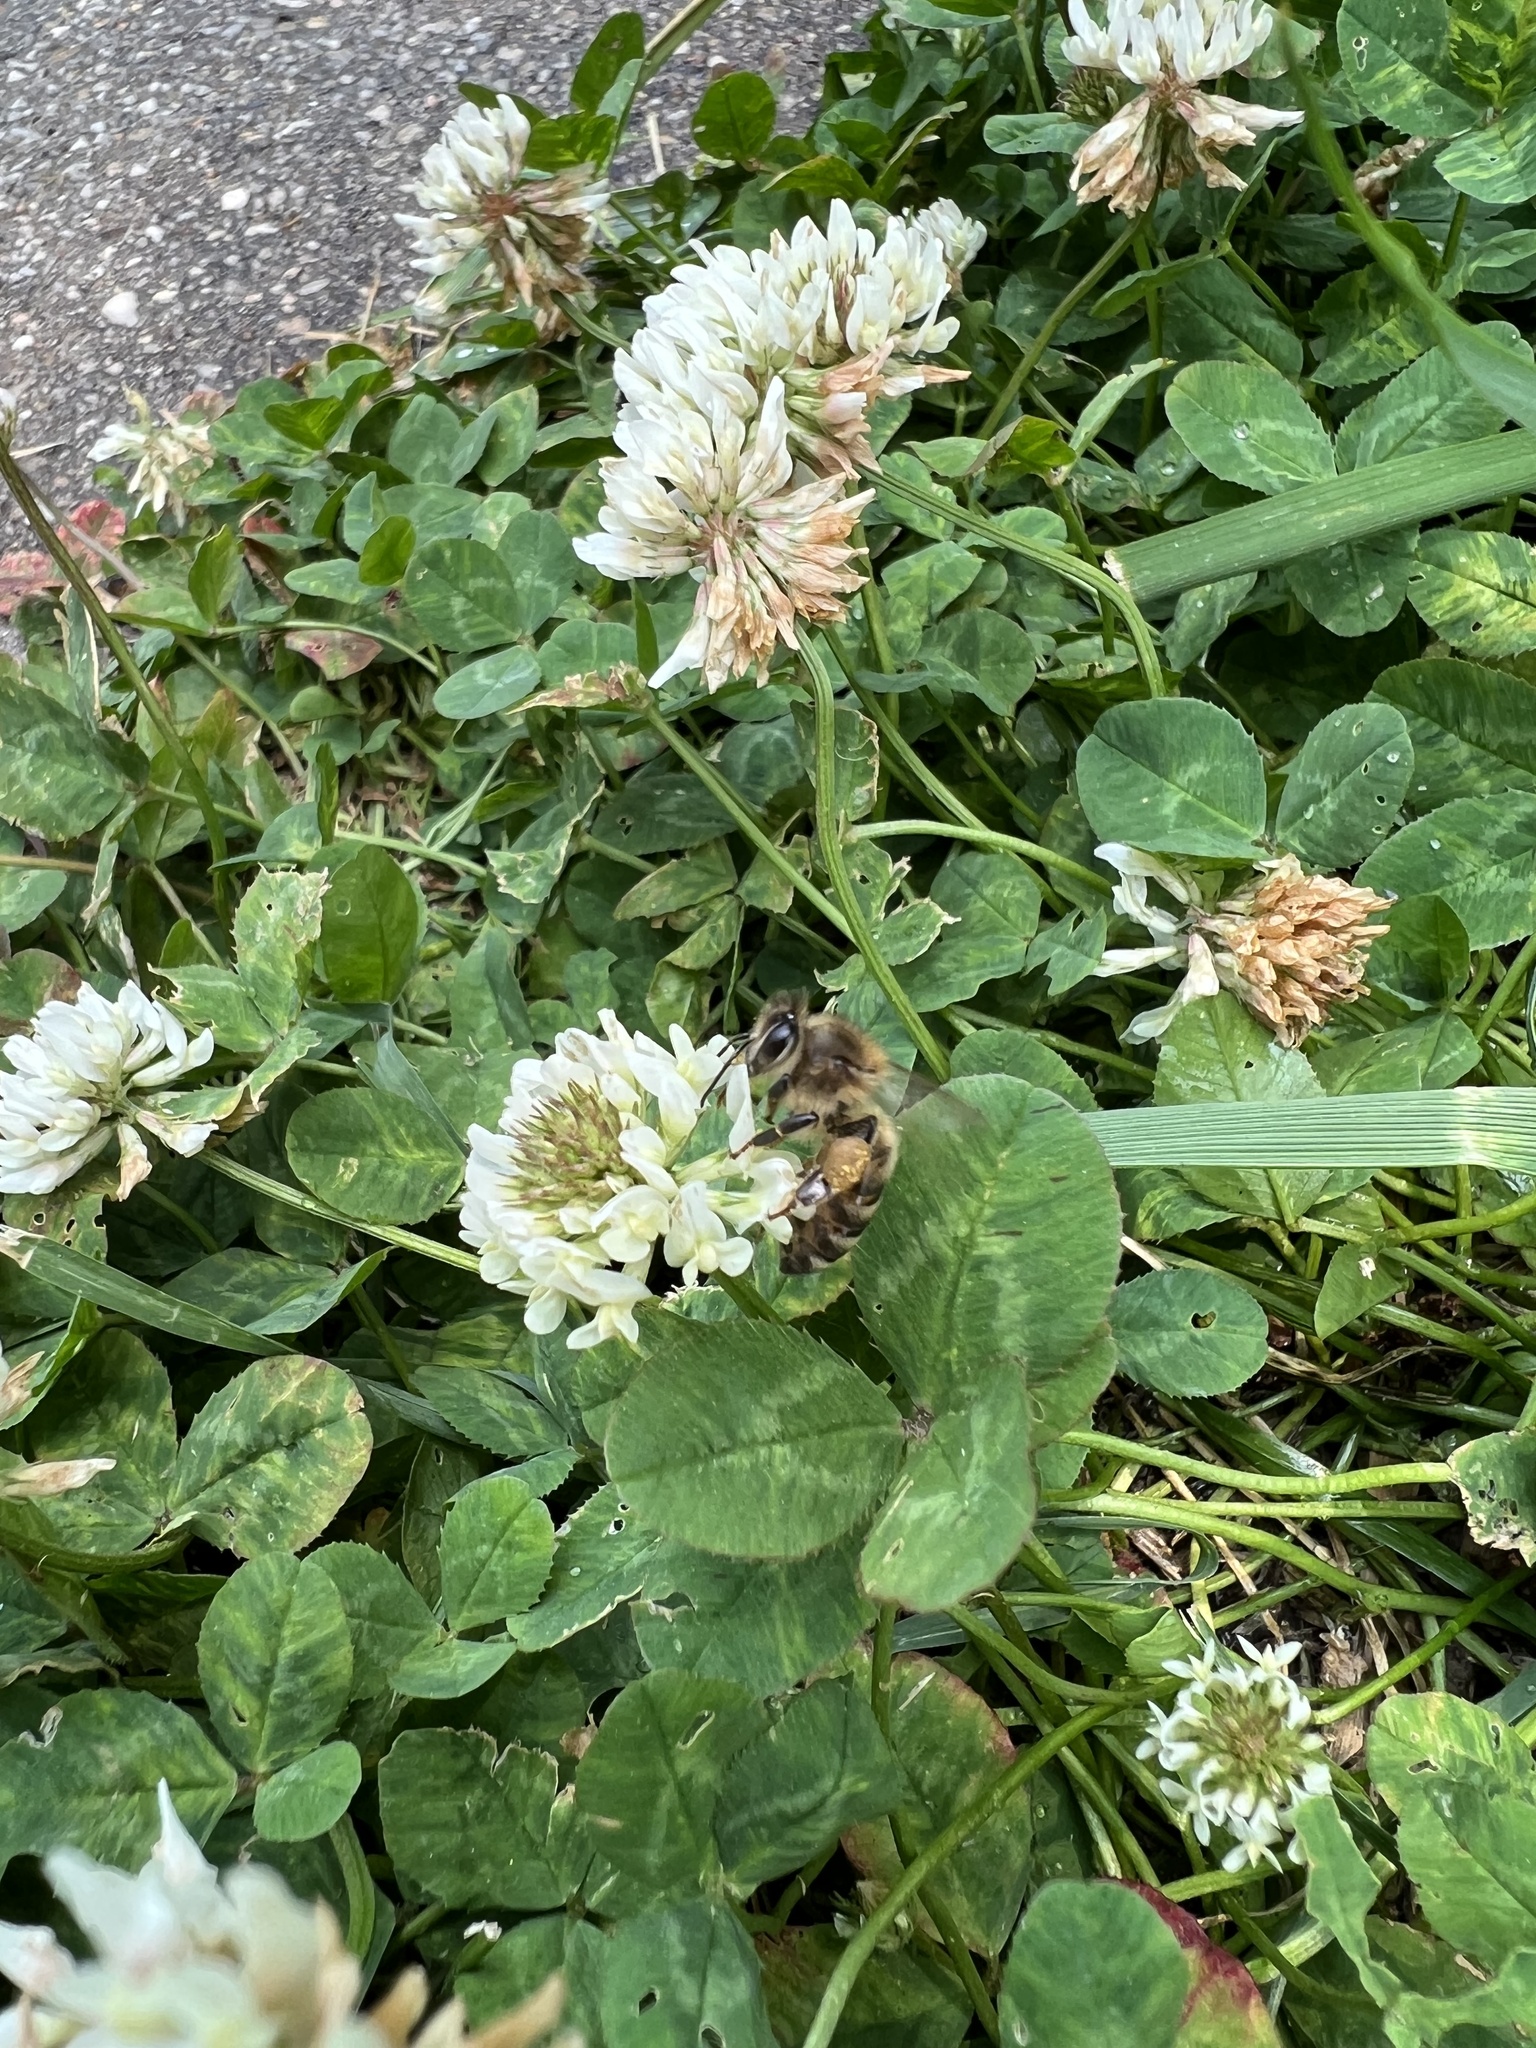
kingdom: Animalia
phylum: Arthropoda
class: Insecta
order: Hymenoptera
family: Apidae
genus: Apis
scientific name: Apis mellifera
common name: Honey bee
